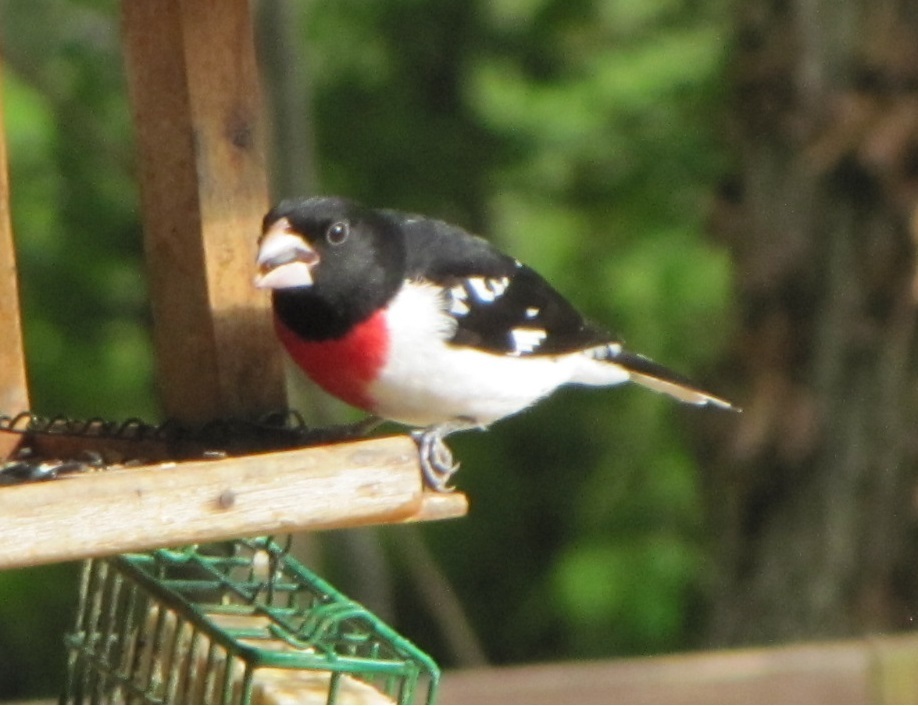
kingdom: Animalia
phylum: Chordata
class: Aves
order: Passeriformes
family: Cardinalidae
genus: Pheucticus
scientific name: Pheucticus ludovicianus
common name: Rose-breasted grosbeak
